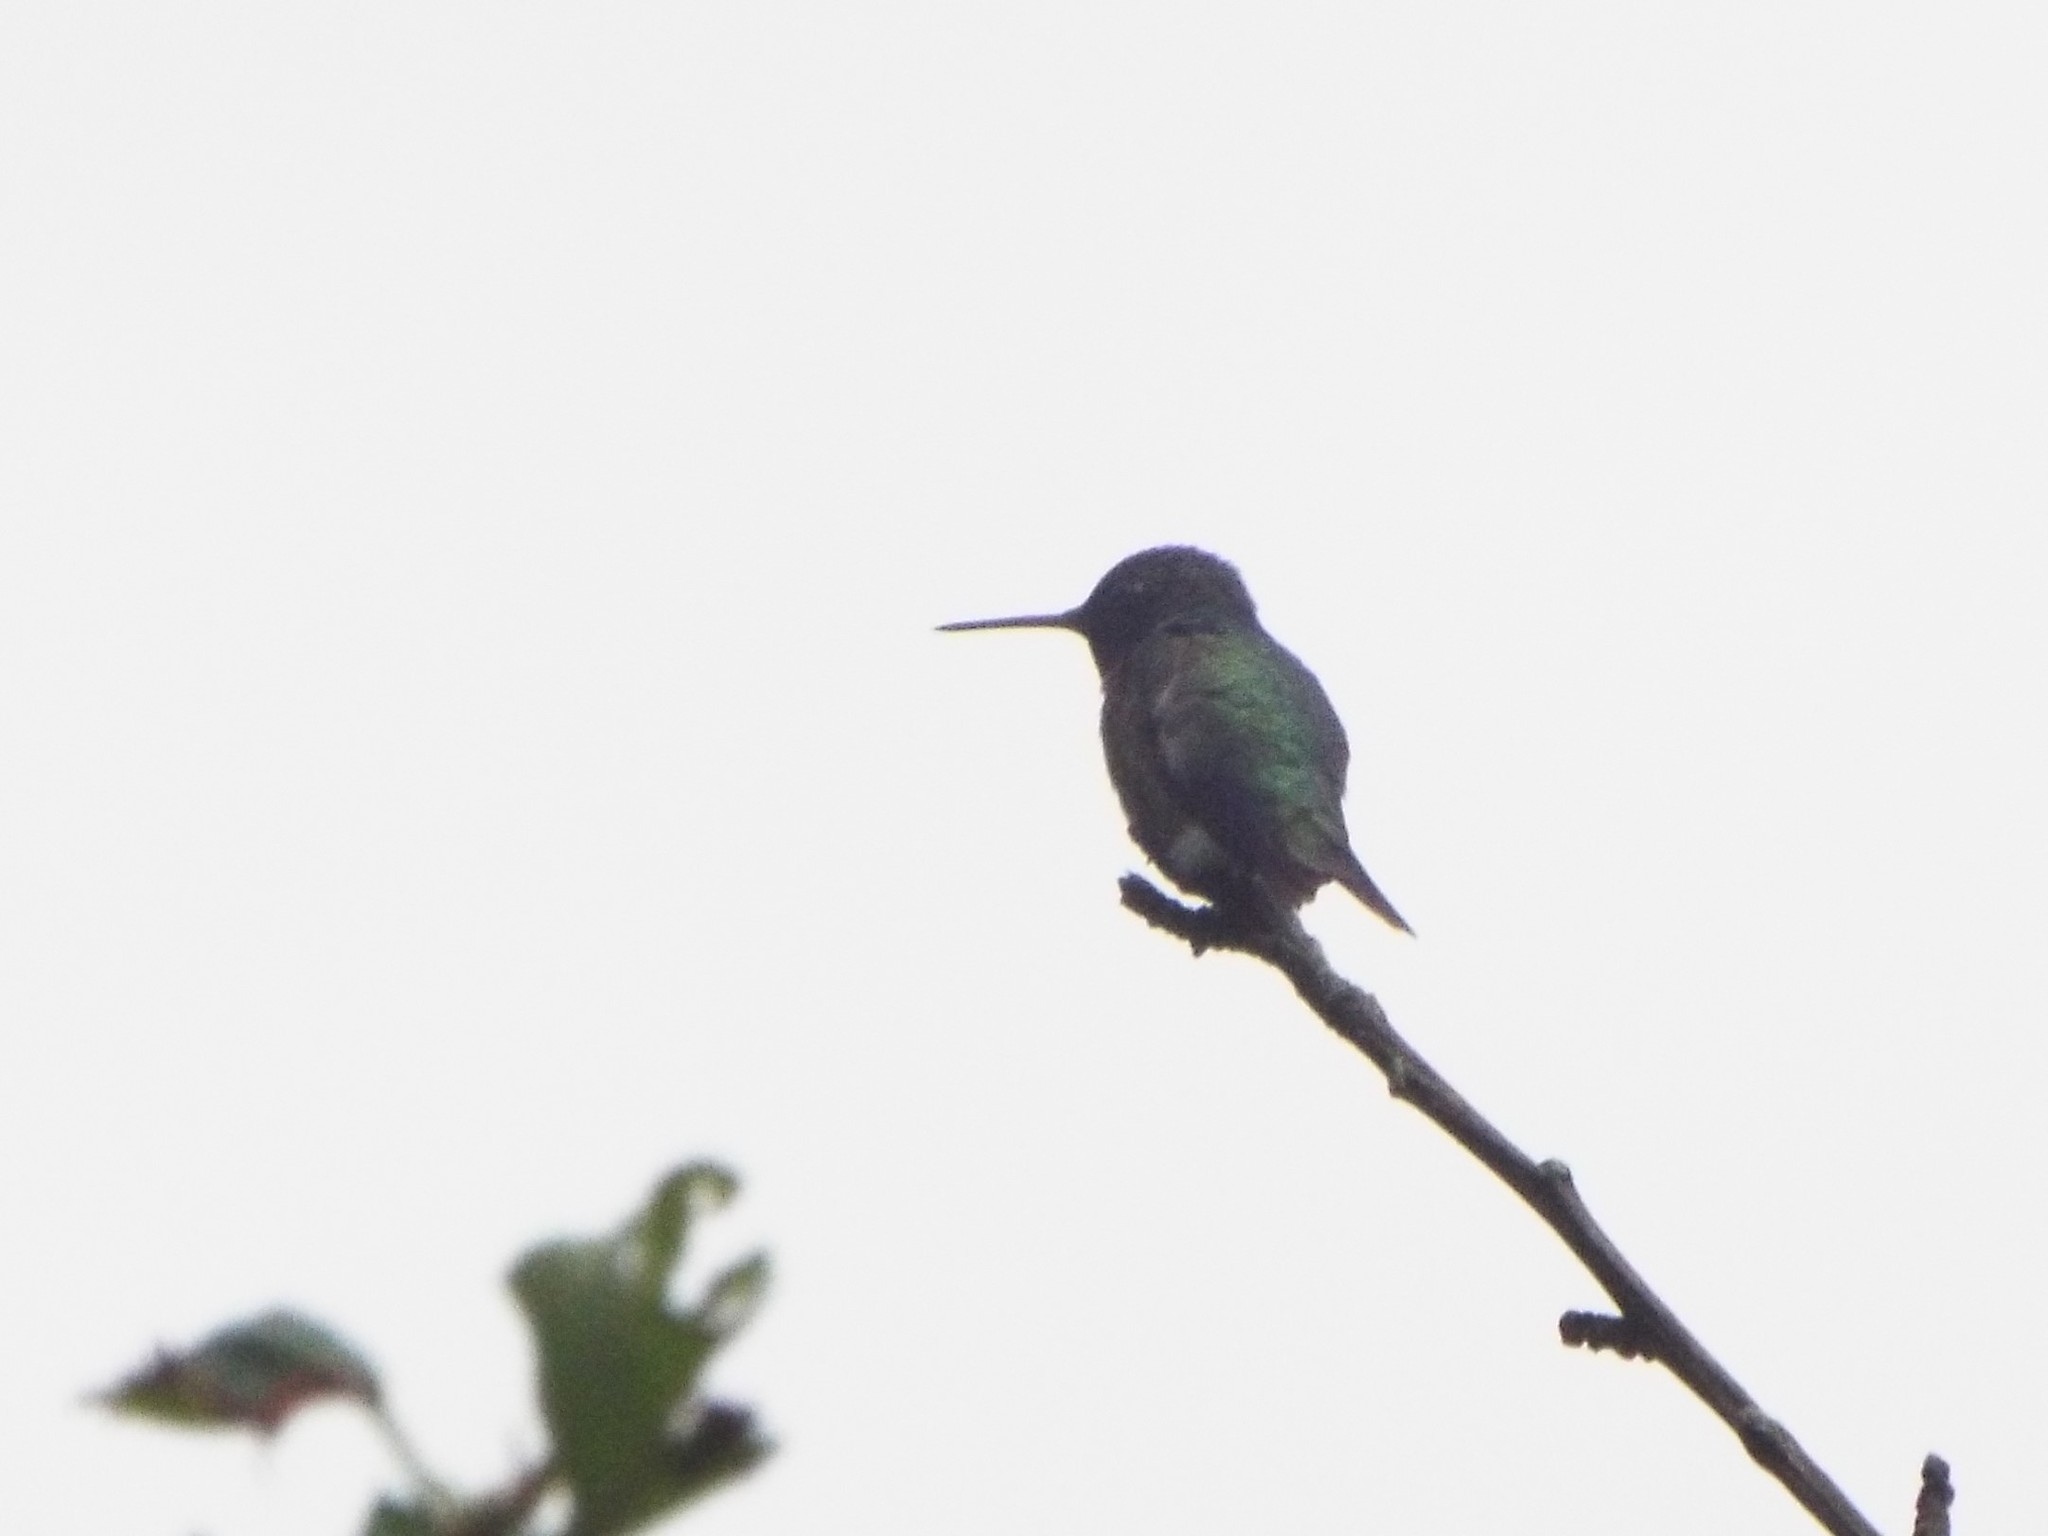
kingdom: Animalia
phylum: Chordata
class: Aves
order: Apodiformes
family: Trochilidae
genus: Archilochus
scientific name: Archilochus colubris
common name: Ruby-throated hummingbird
